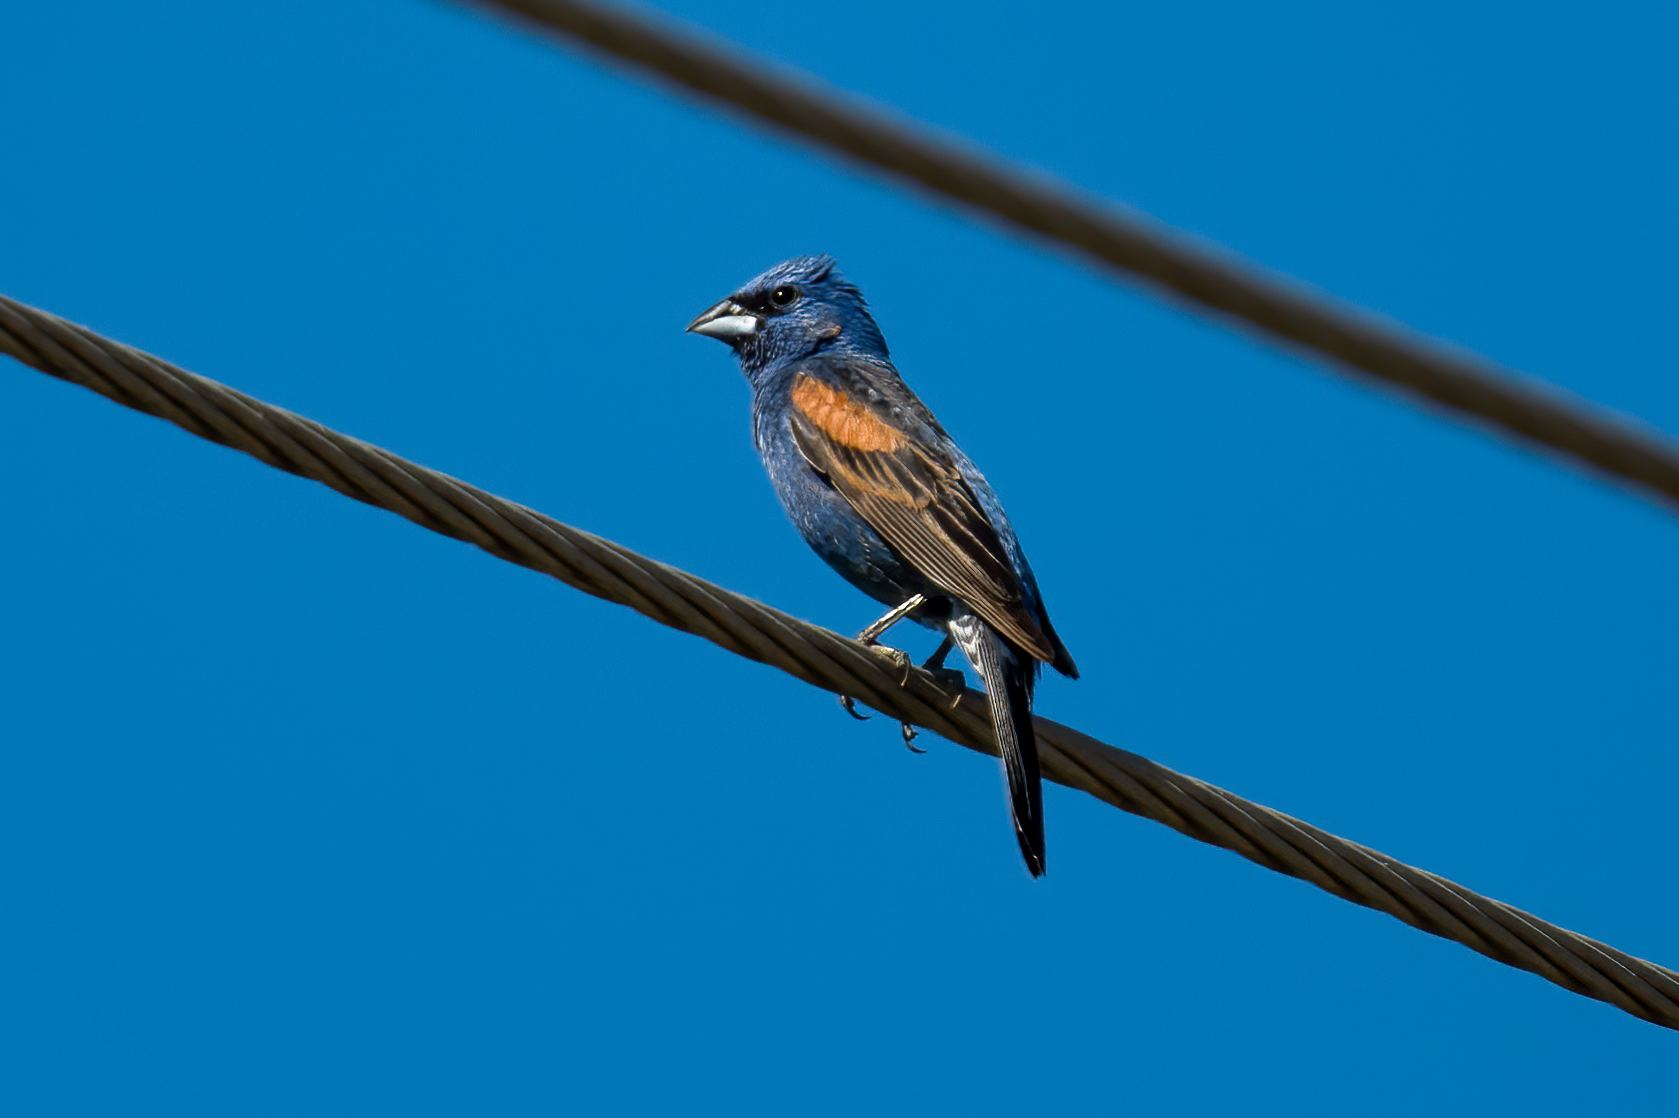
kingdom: Animalia
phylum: Chordata
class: Aves
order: Passeriformes
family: Cardinalidae
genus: Passerina
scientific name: Passerina caerulea
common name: Blue grosbeak
